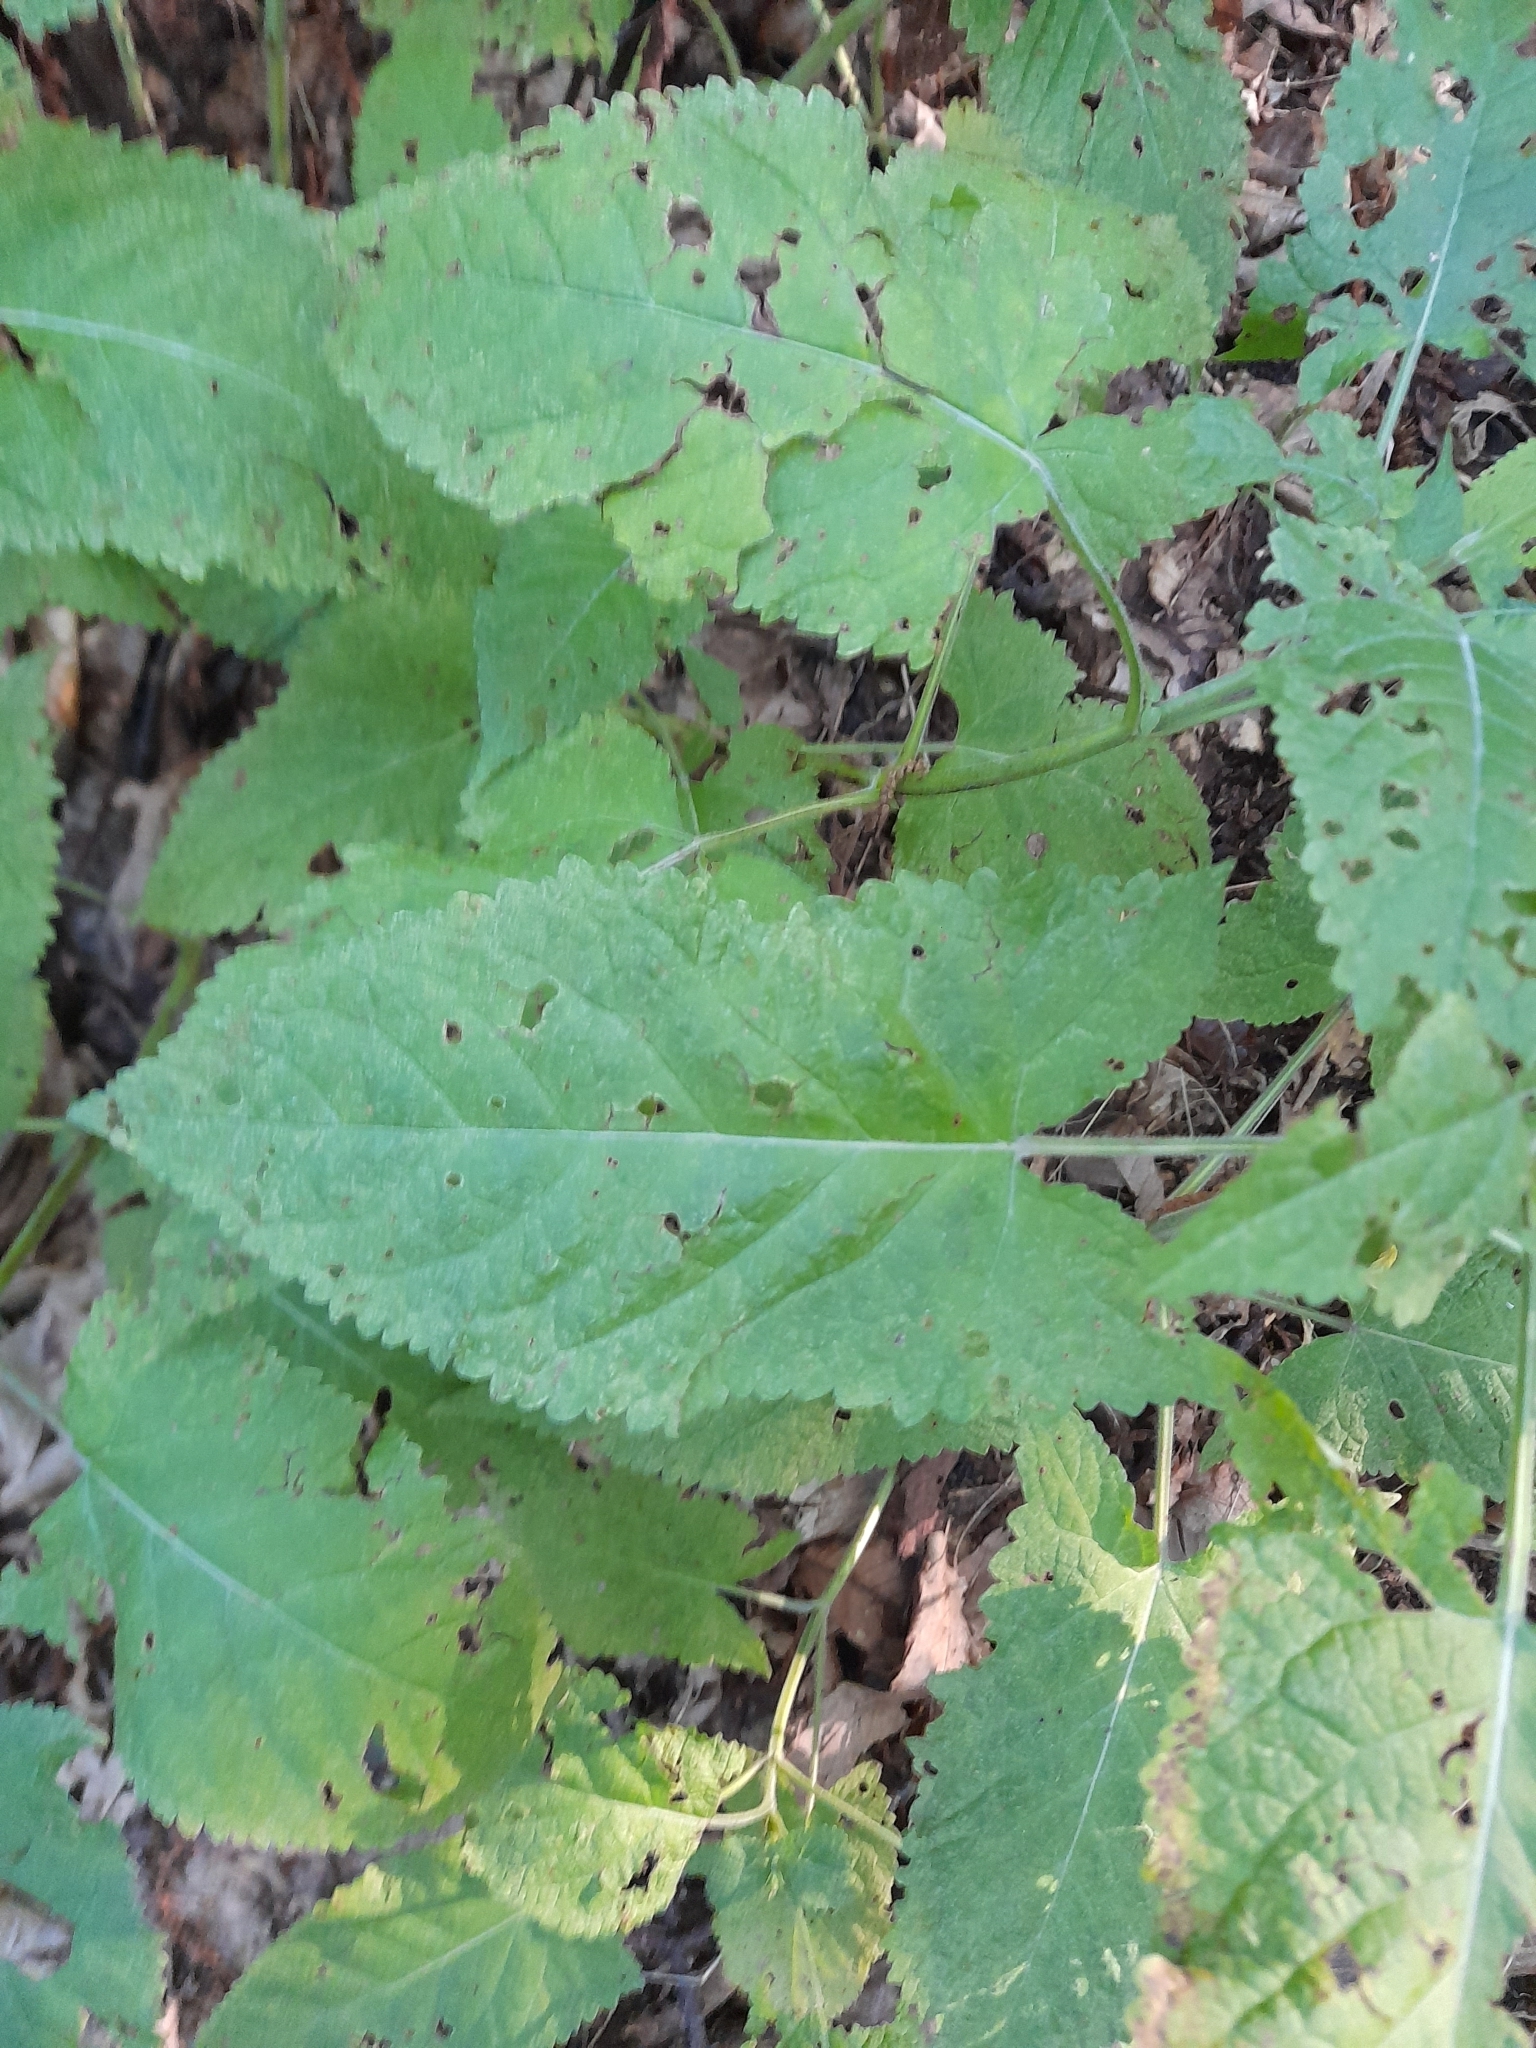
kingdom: Plantae
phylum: Tracheophyta
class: Magnoliopsida
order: Lamiales
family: Lamiaceae
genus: Salvia
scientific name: Salvia glutinosa
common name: Sticky clary
